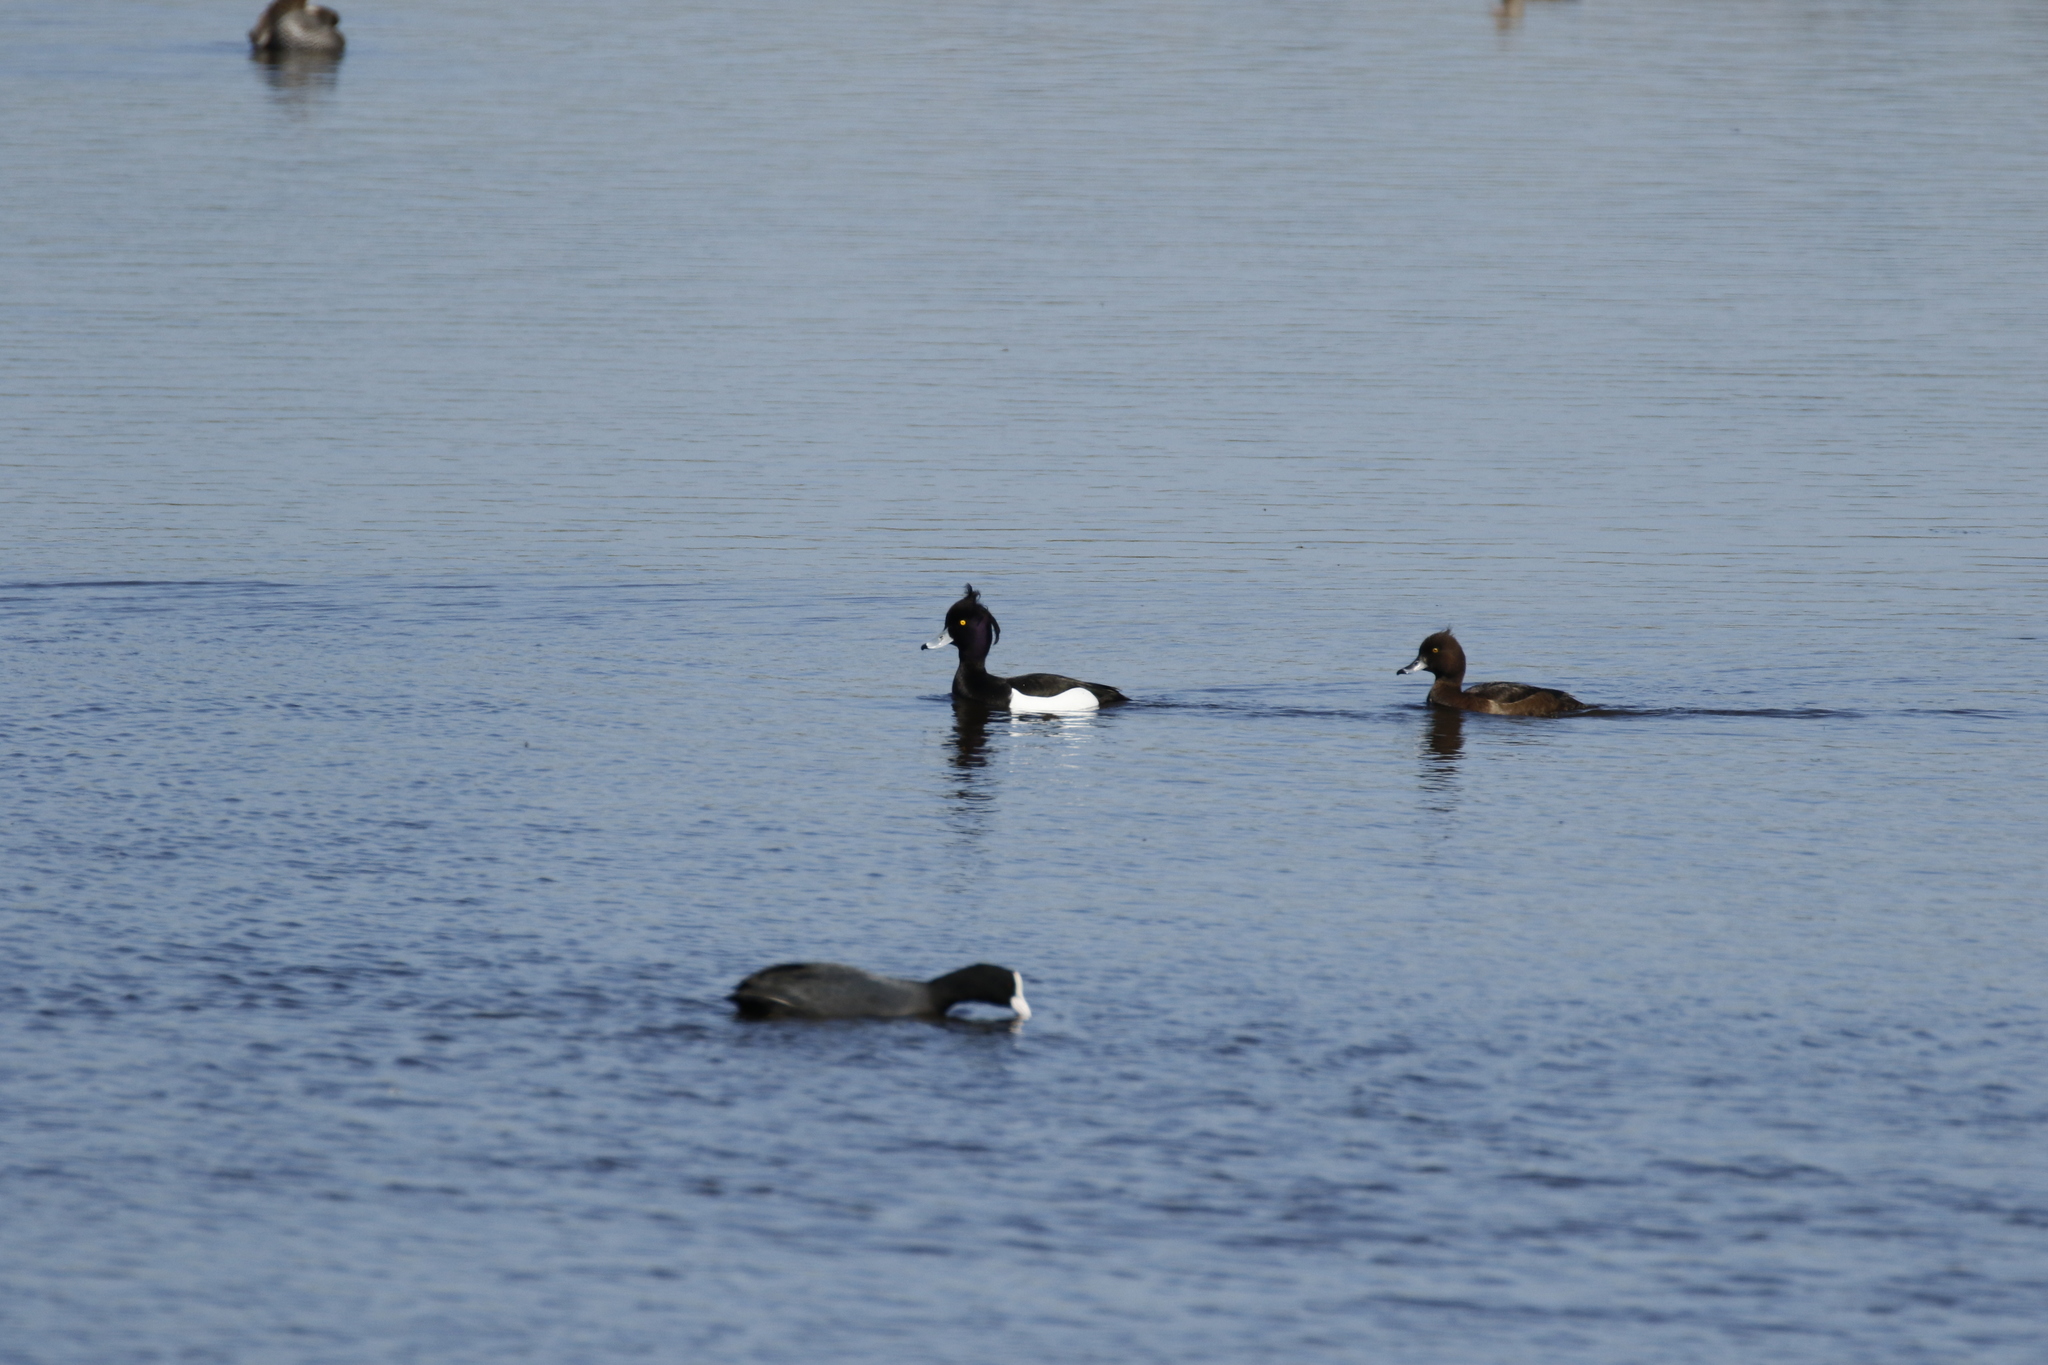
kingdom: Animalia
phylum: Chordata
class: Aves
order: Anseriformes
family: Anatidae
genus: Aythya
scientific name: Aythya fuligula
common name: Tufted duck
